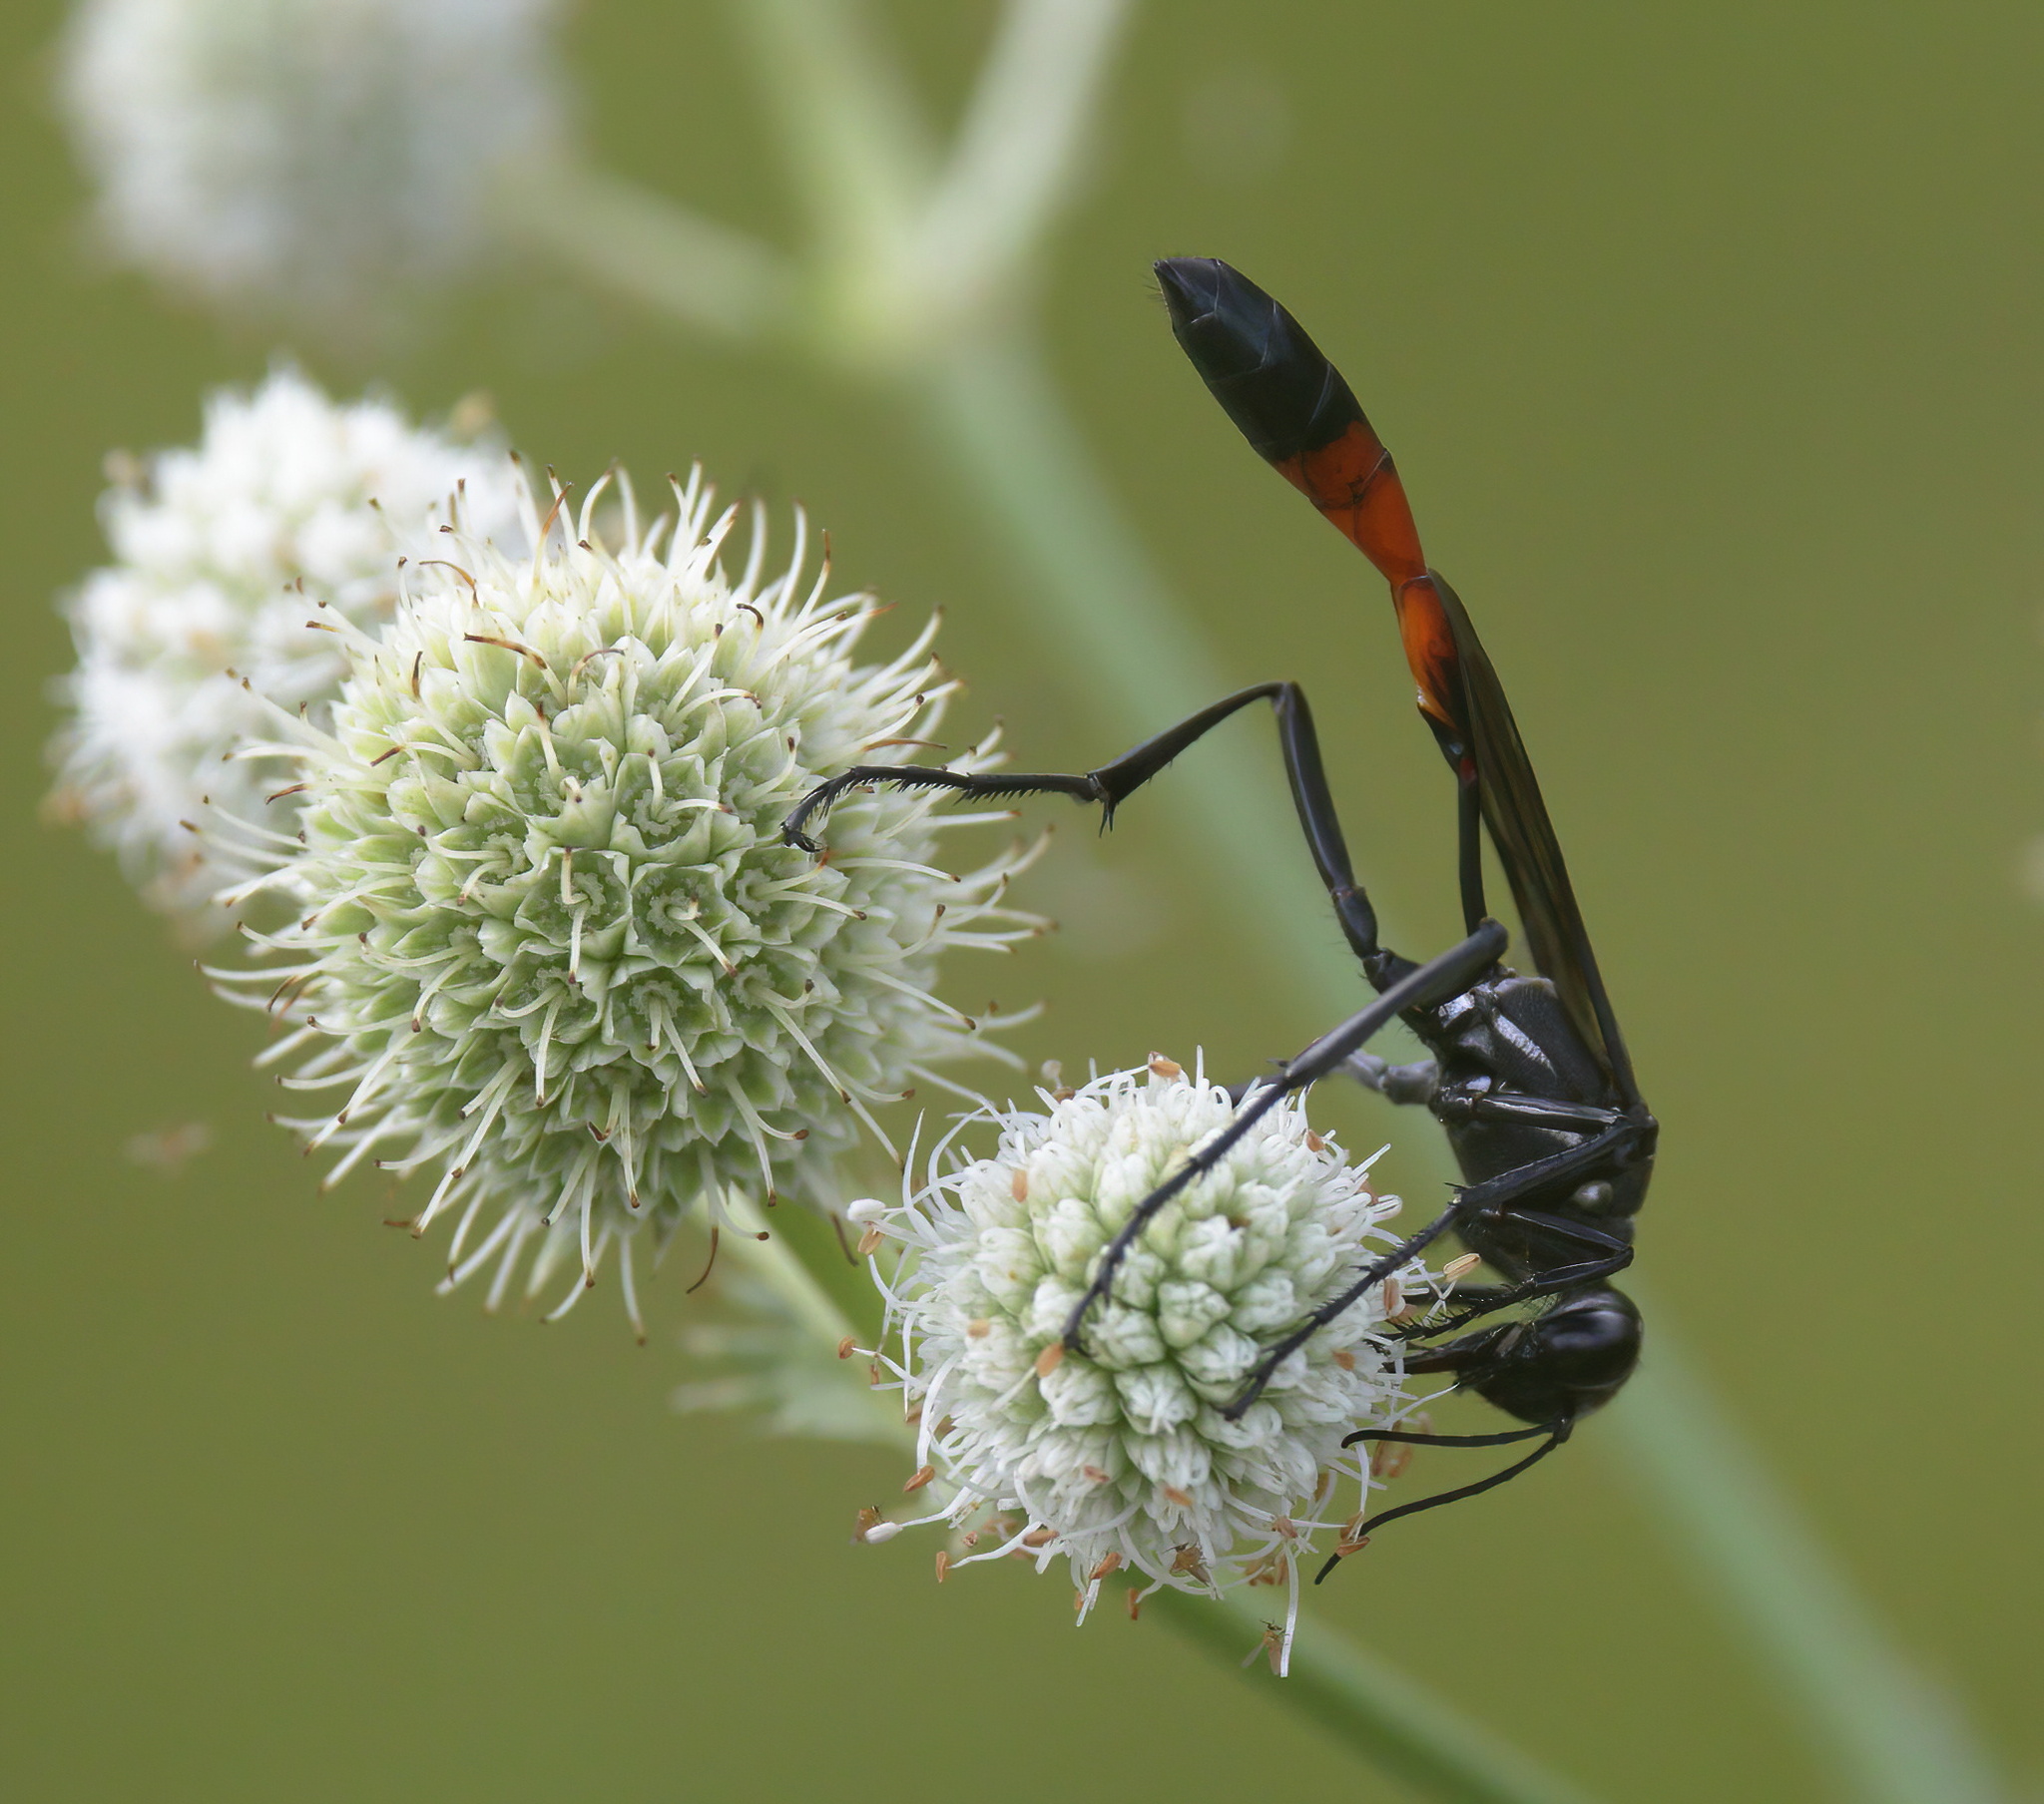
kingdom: Animalia
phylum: Arthropoda
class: Insecta
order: Hymenoptera
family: Sphecidae
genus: Ammophila
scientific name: Ammophila procera
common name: Common thread-waisted wasp
